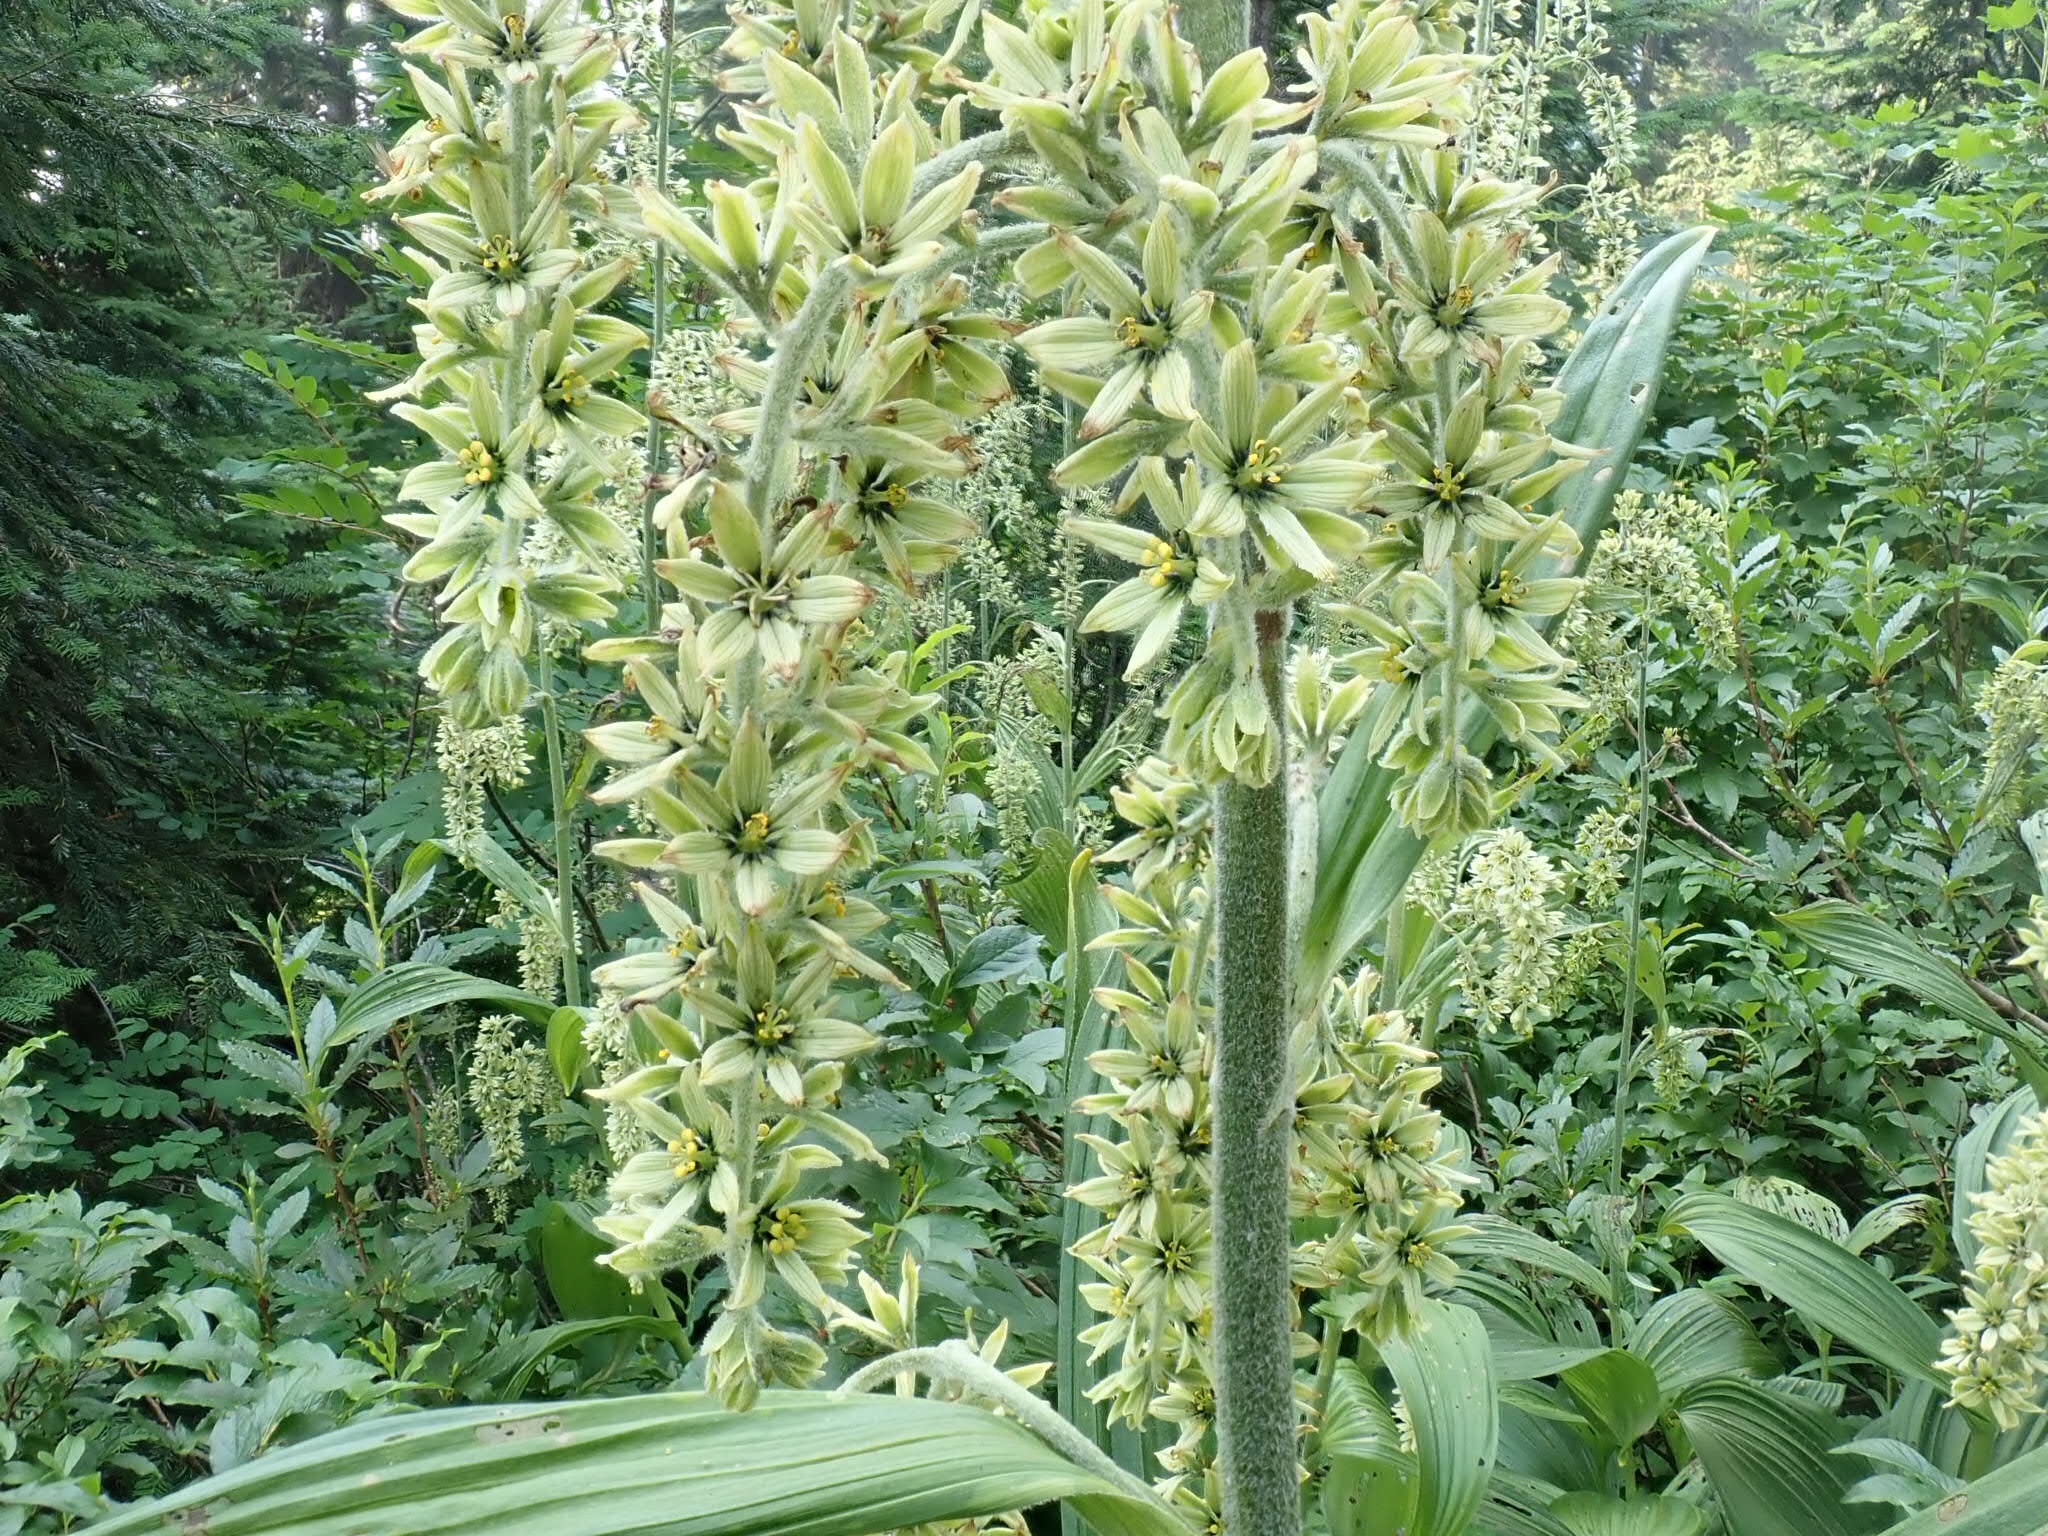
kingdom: Plantae
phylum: Tracheophyta
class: Liliopsida
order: Liliales
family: Melanthiaceae
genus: Veratrum
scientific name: Veratrum viride
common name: American false hellebore
